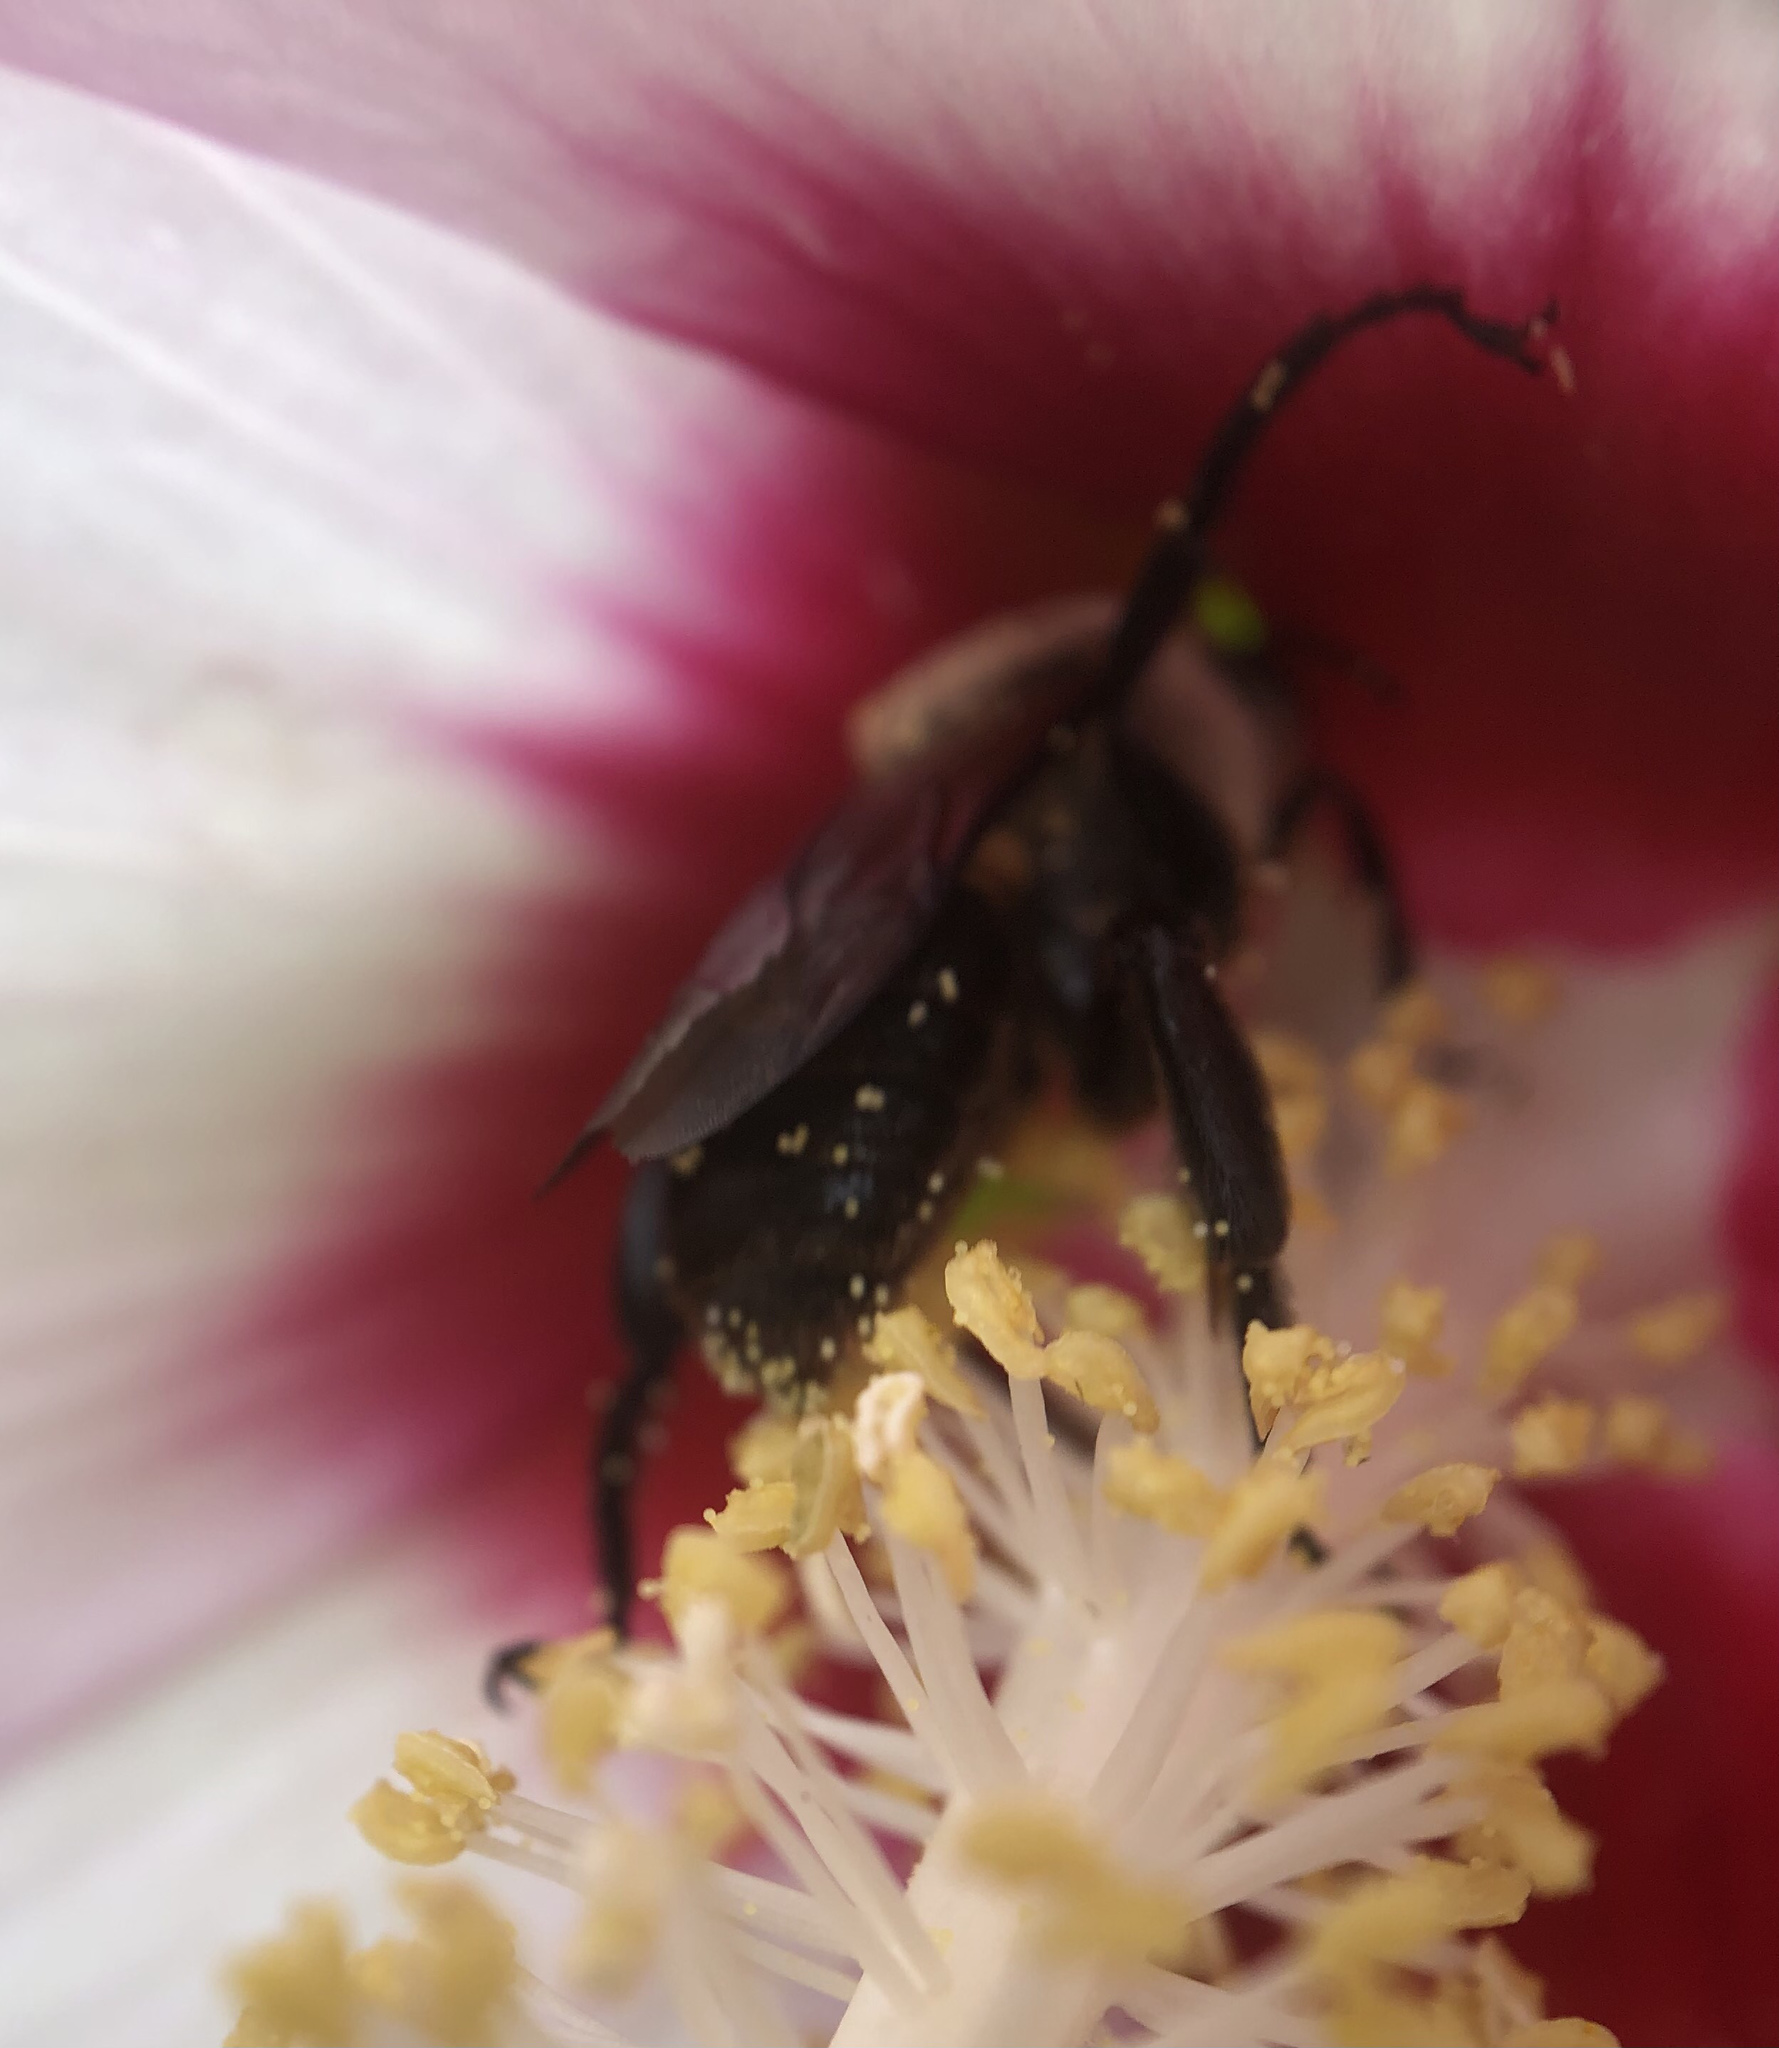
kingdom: Animalia
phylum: Arthropoda
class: Insecta
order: Hymenoptera
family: Apidae
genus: Ptilothrix
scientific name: Ptilothrix bombiformis
